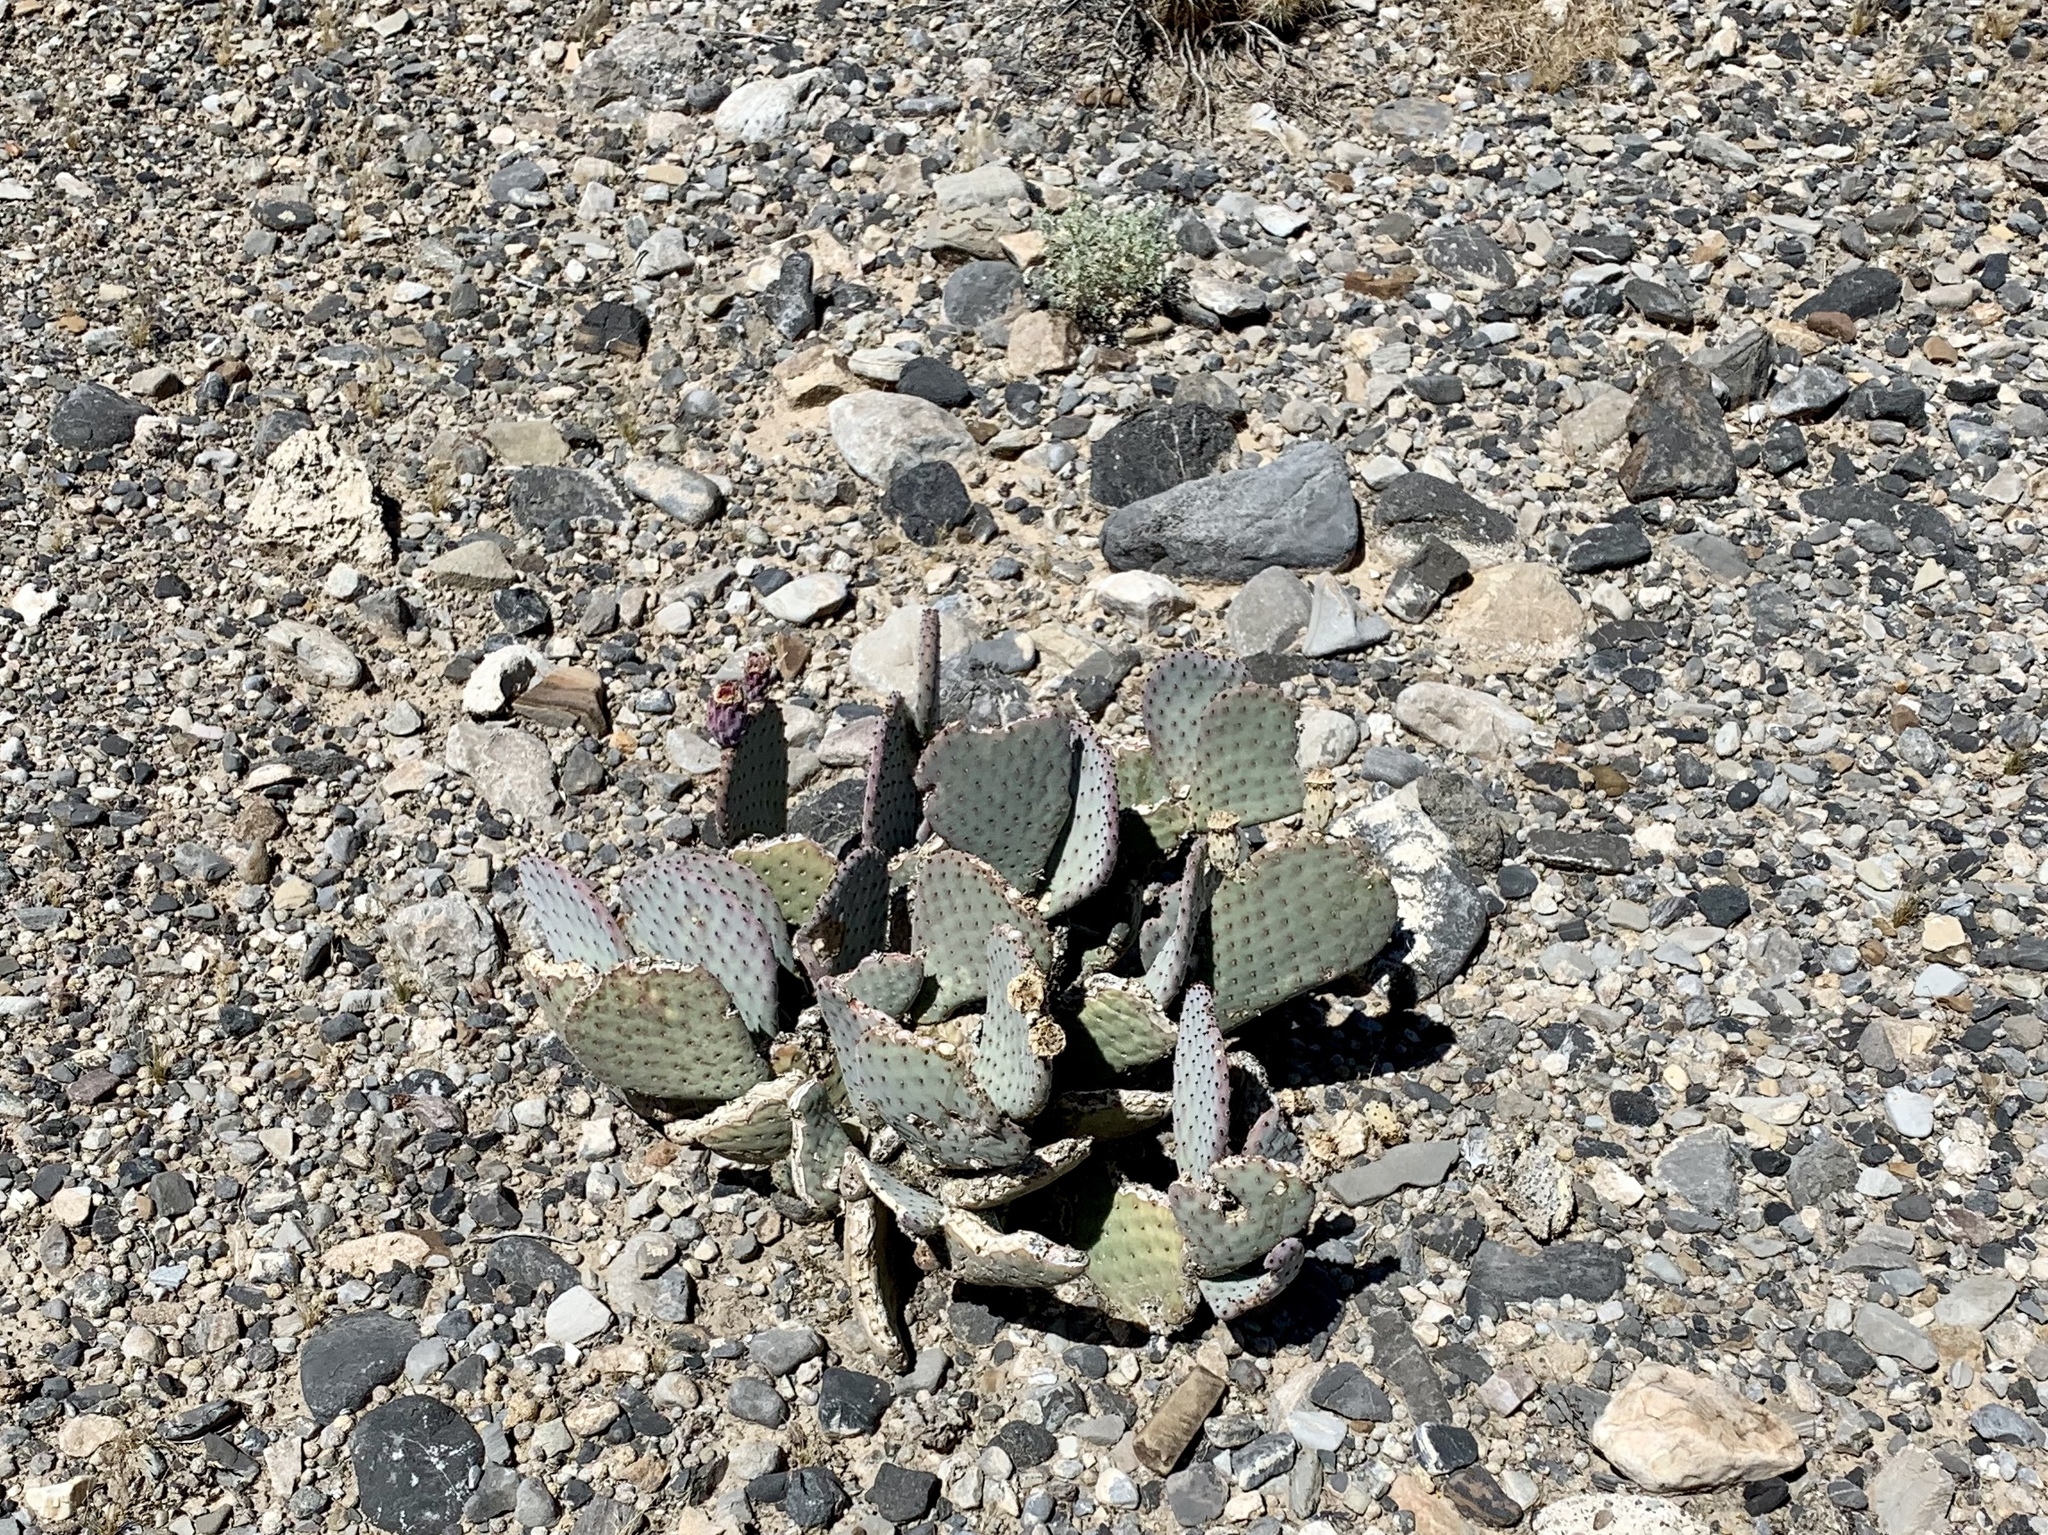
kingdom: Plantae
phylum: Tracheophyta
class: Magnoliopsida
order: Caryophyllales
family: Cactaceae
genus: Opuntia
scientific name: Opuntia basilaris
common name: Beavertail prickly-pear
